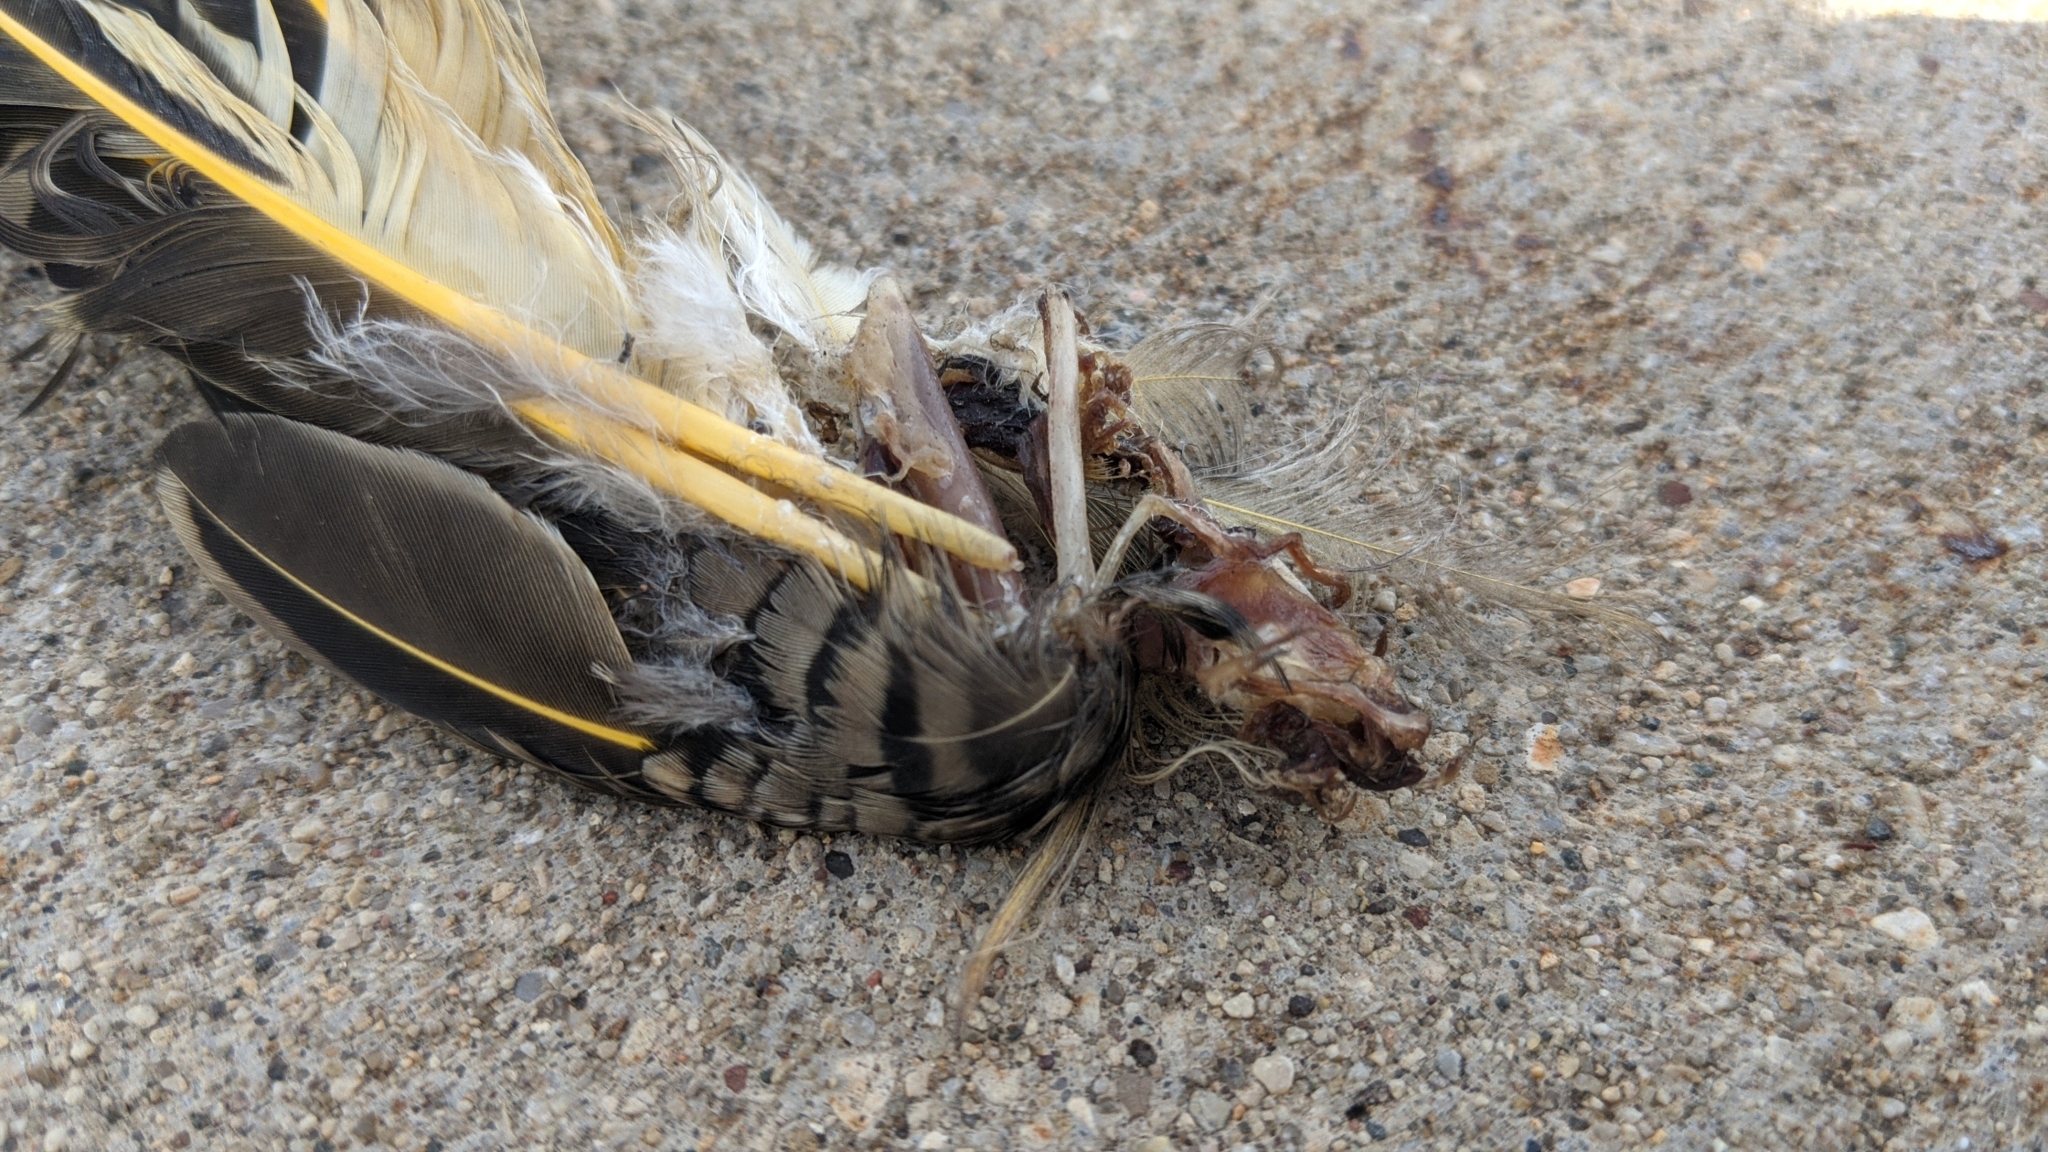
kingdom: Animalia
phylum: Chordata
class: Aves
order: Piciformes
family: Picidae
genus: Colaptes
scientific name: Colaptes auratus
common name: Northern flicker
